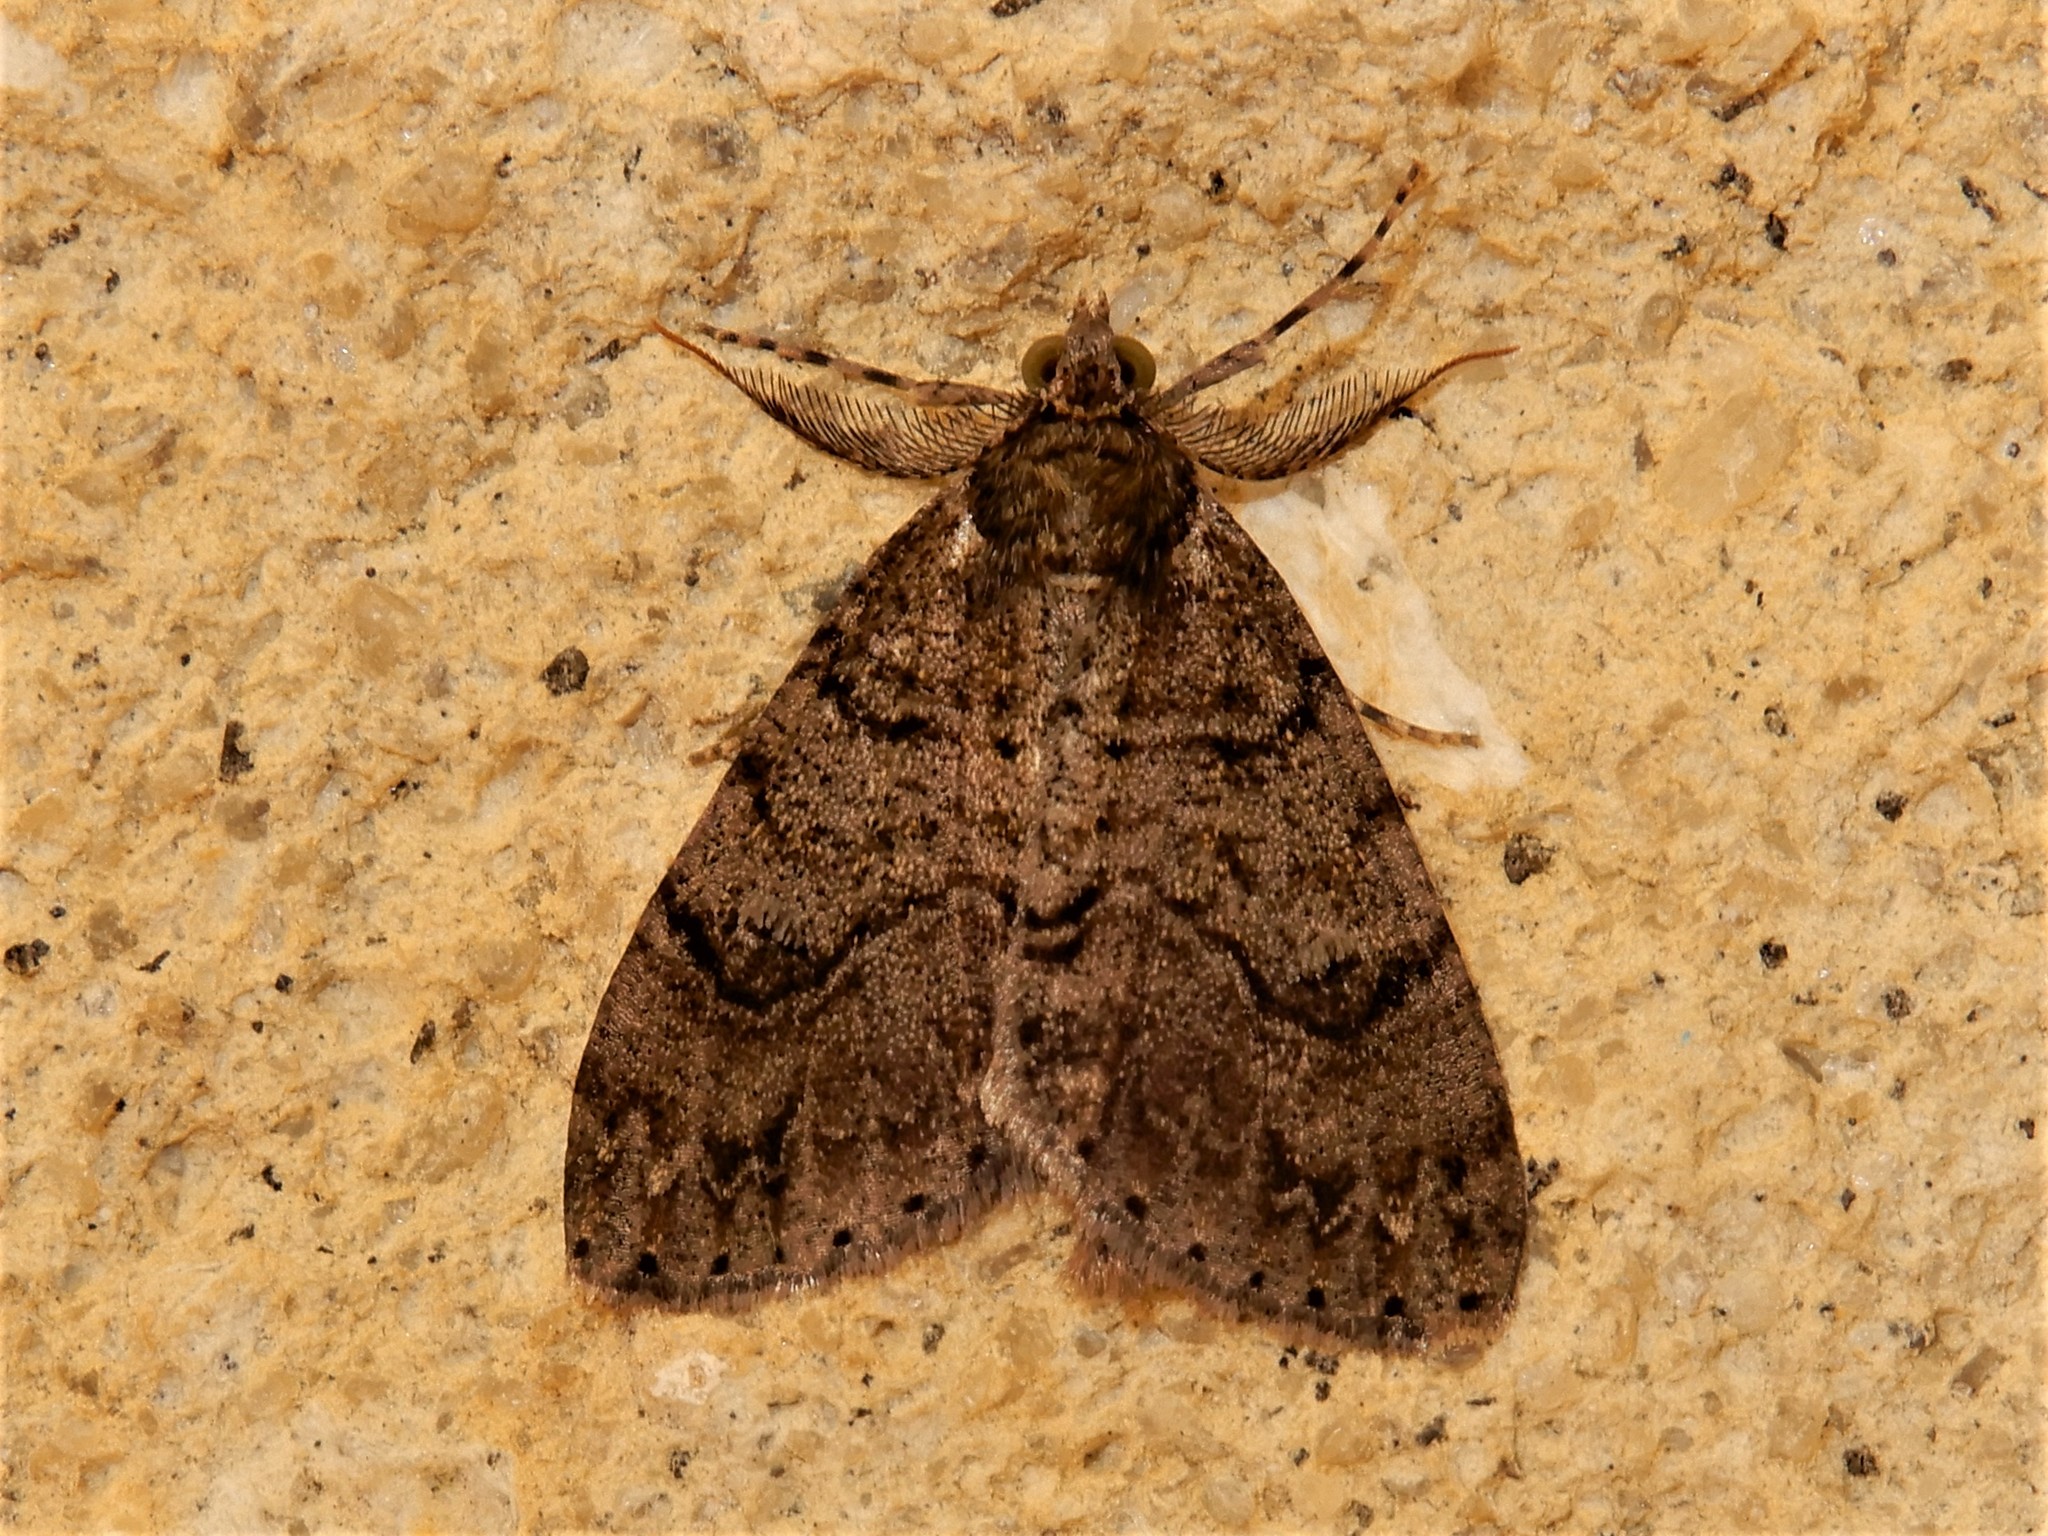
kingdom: Animalia
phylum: Arthropoda
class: Insecta
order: Lepidoptera
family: Geometridae
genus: Pseudocoremia
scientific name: Pseudocoremia suavis
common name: Common forest looper
